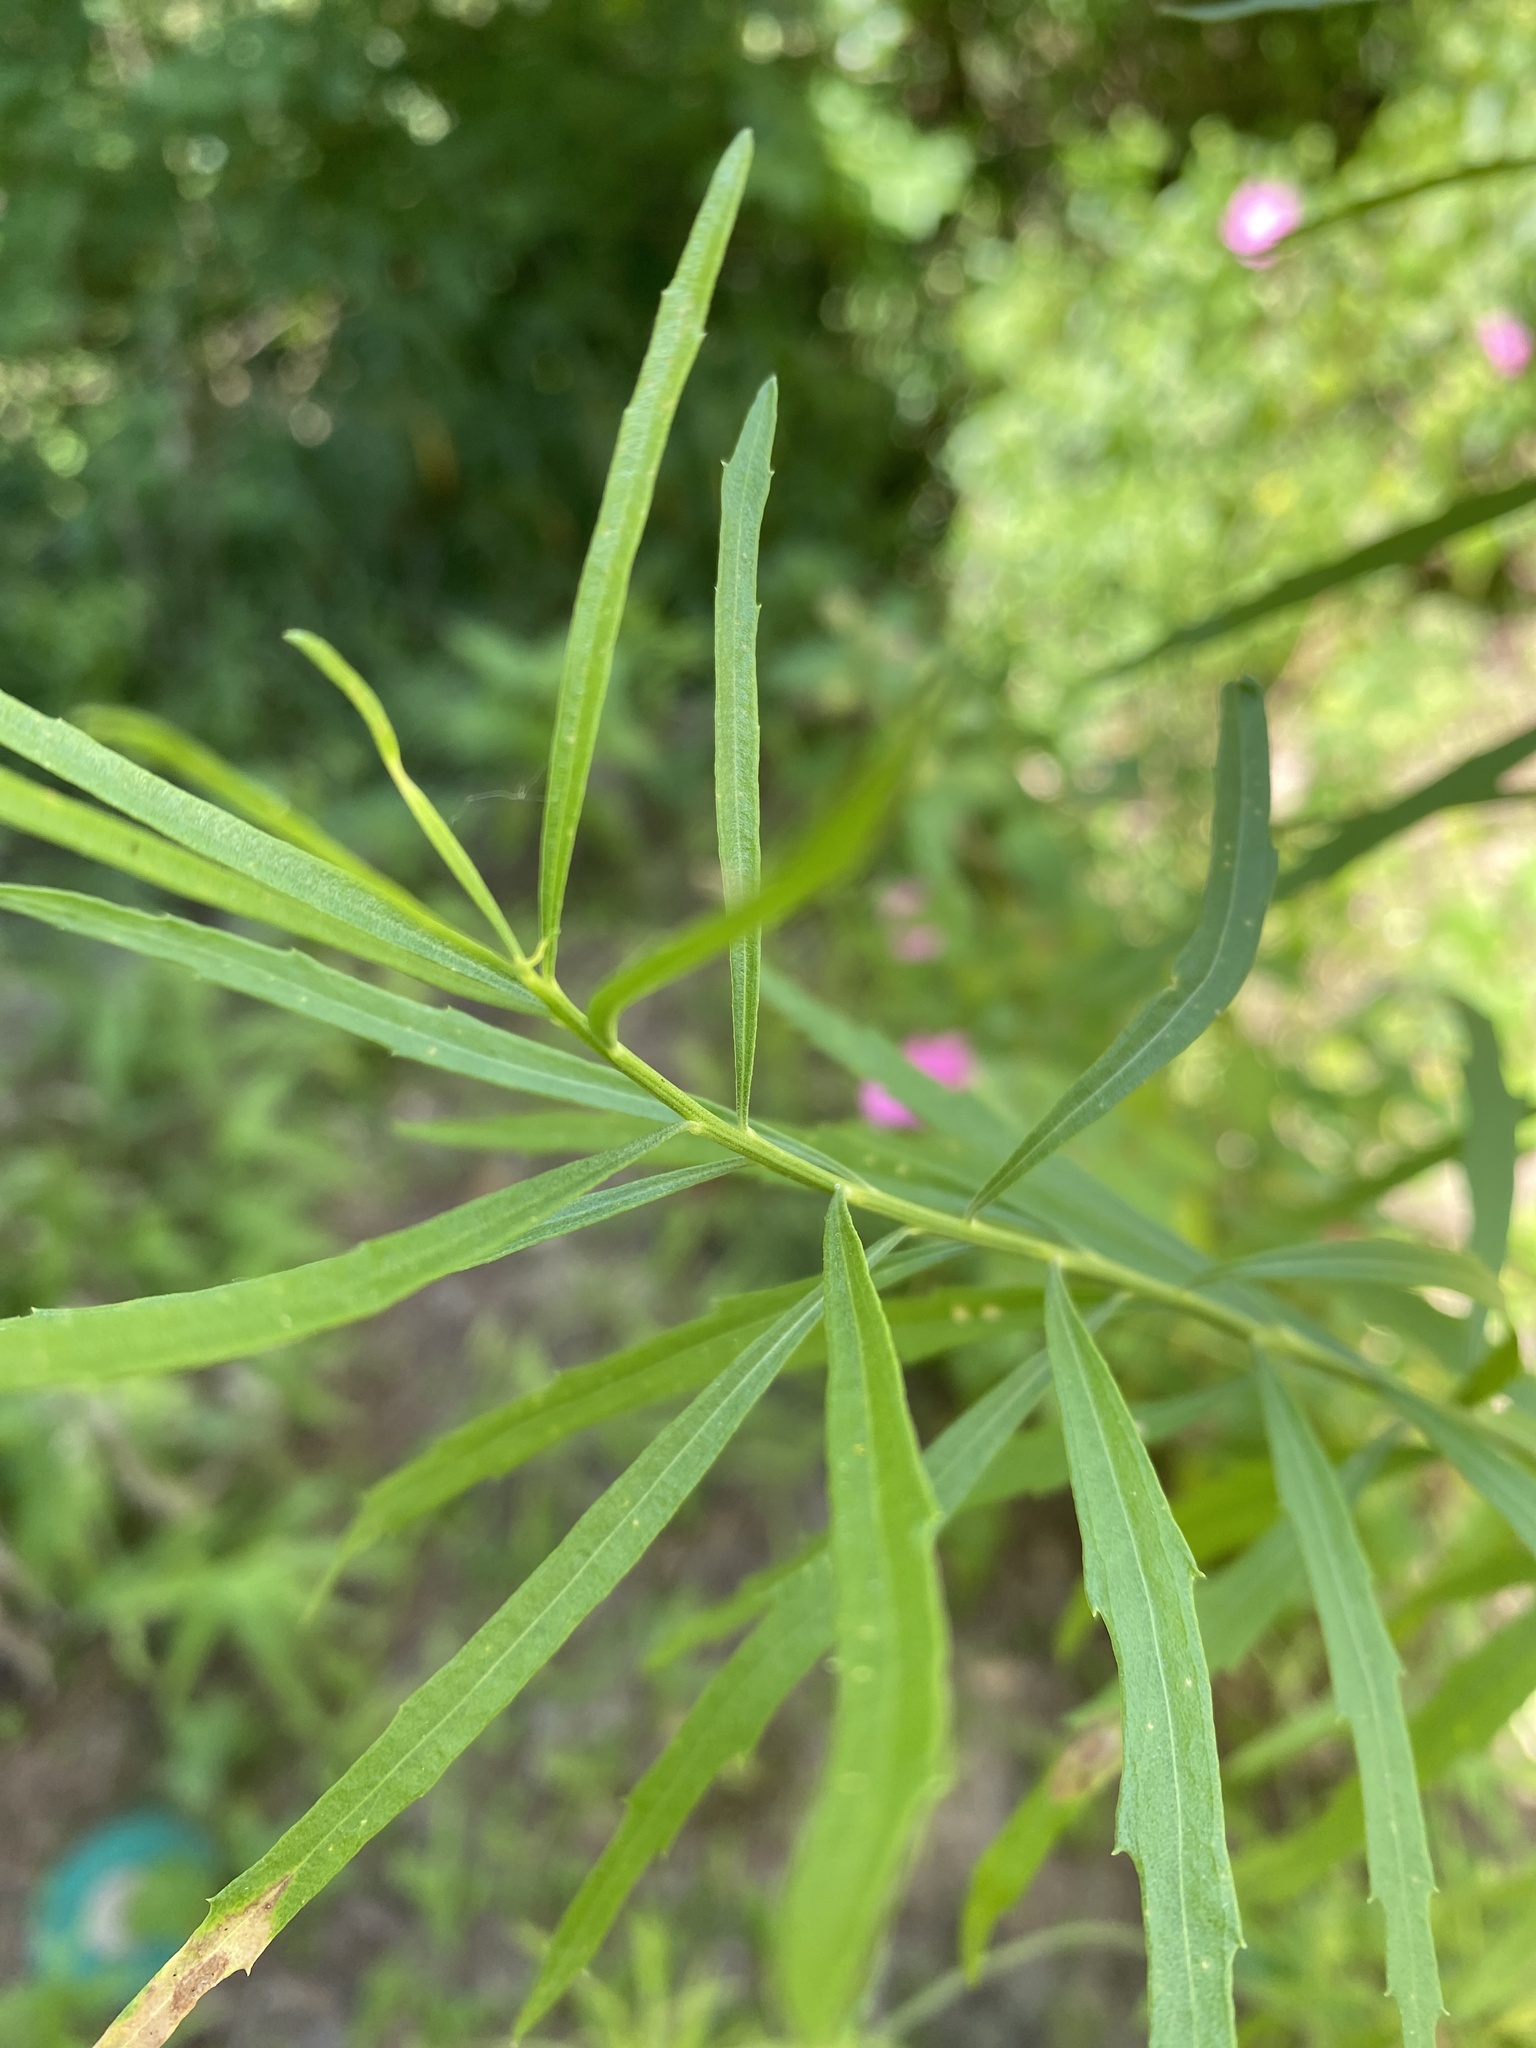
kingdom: Plantae
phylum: Tracheophyta
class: Magnoliopsida
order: Asterales
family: Asteraceae
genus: Baccharis
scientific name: Baccharis neglecta
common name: Roosevelt-weed
